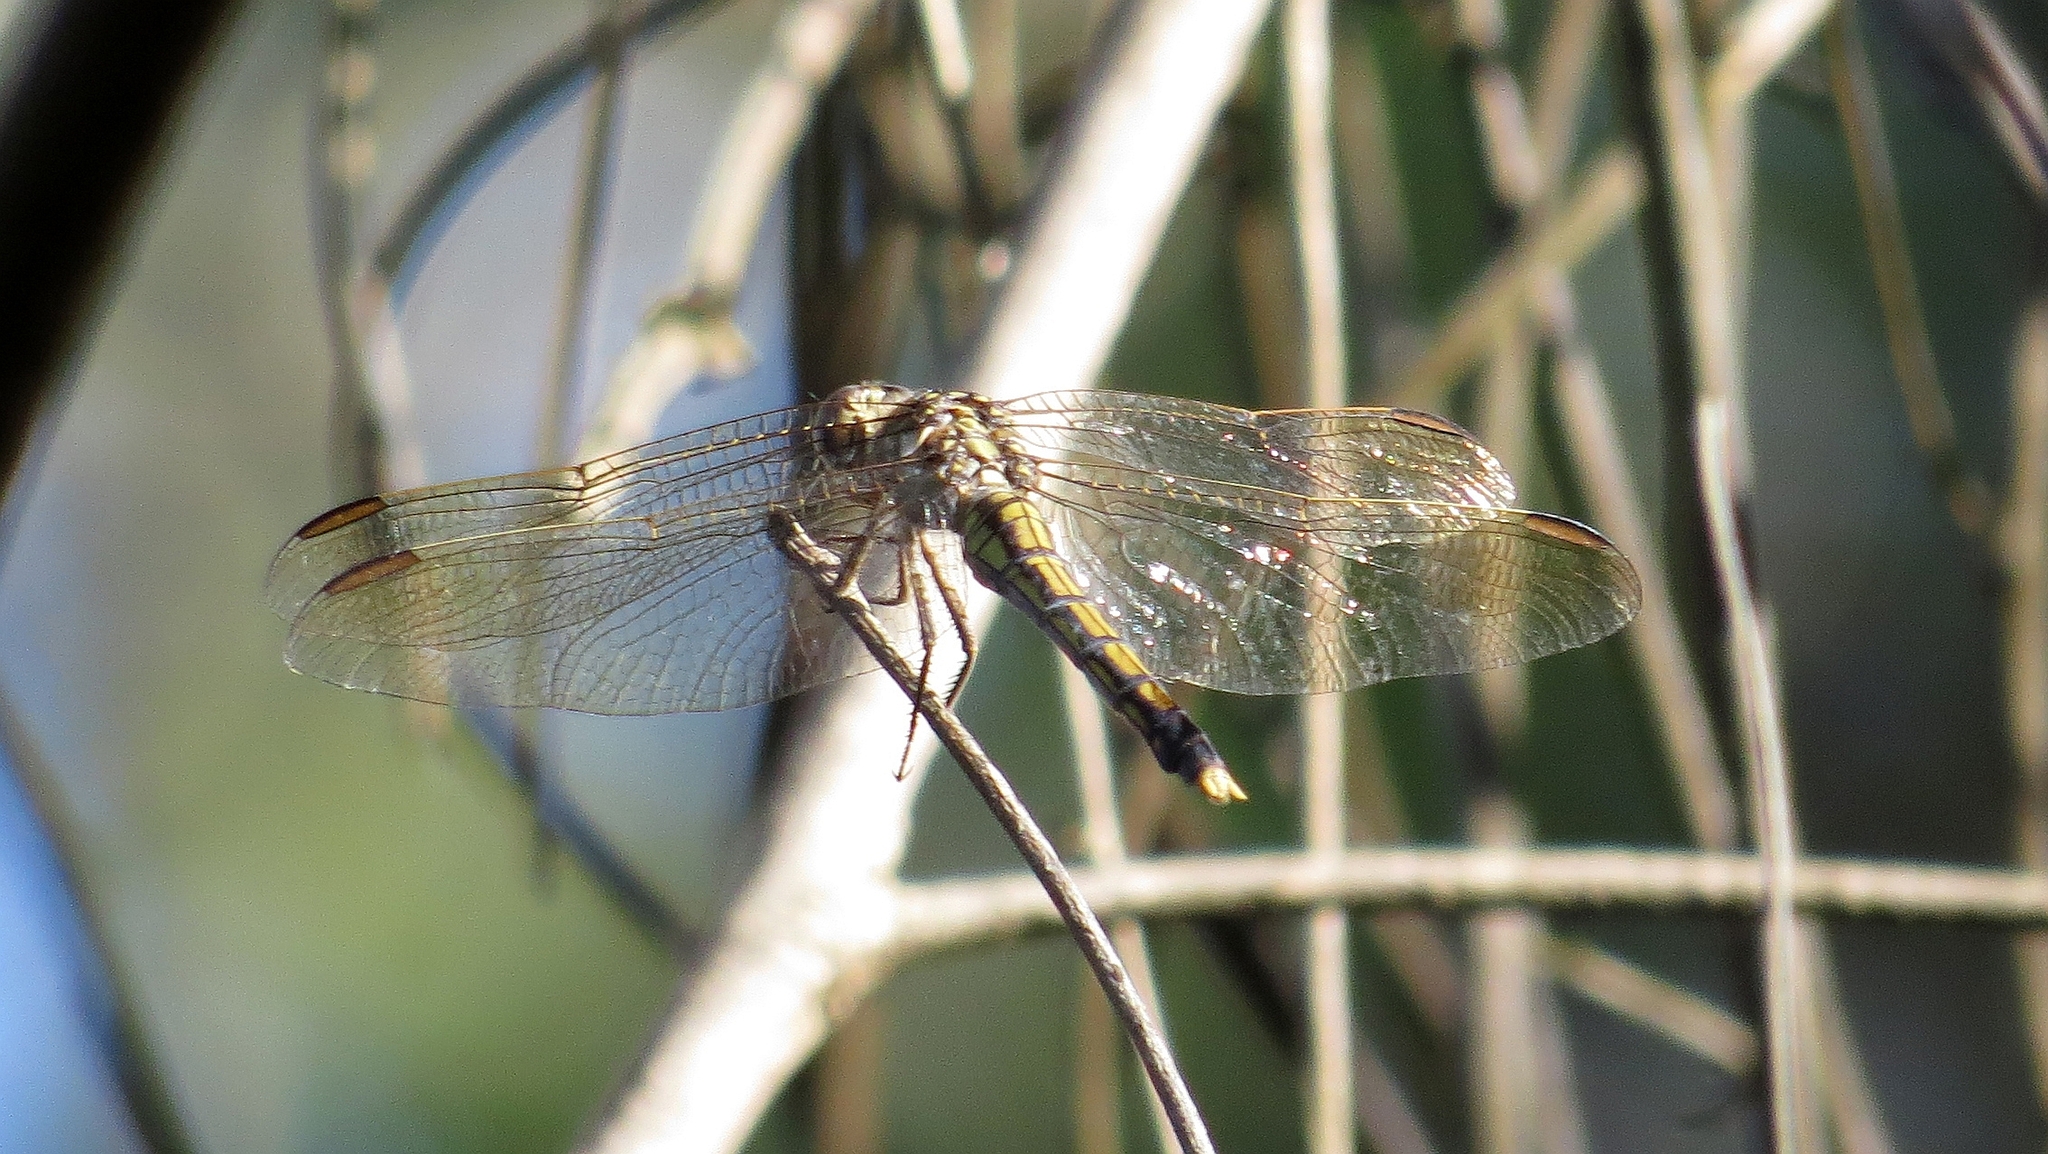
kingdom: Animalia
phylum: Arthropoda
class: Insecta
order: Odonata
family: Libellulidae
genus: Orthetrum
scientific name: Orthetrum caledonicum
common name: Blue skimmer
